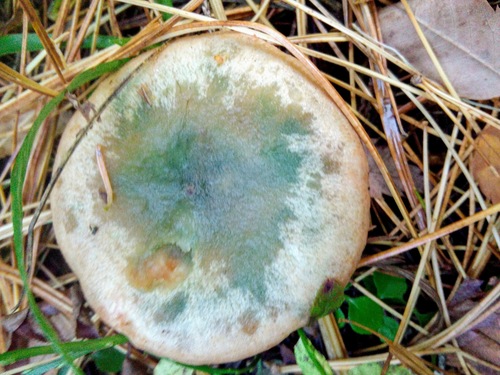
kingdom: Fungi
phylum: Basidiomycota
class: Agaricomycetes
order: Russulales
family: Russulaceae
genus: Lactarius
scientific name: Lactarius deterrimus
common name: False saffron milkcap
